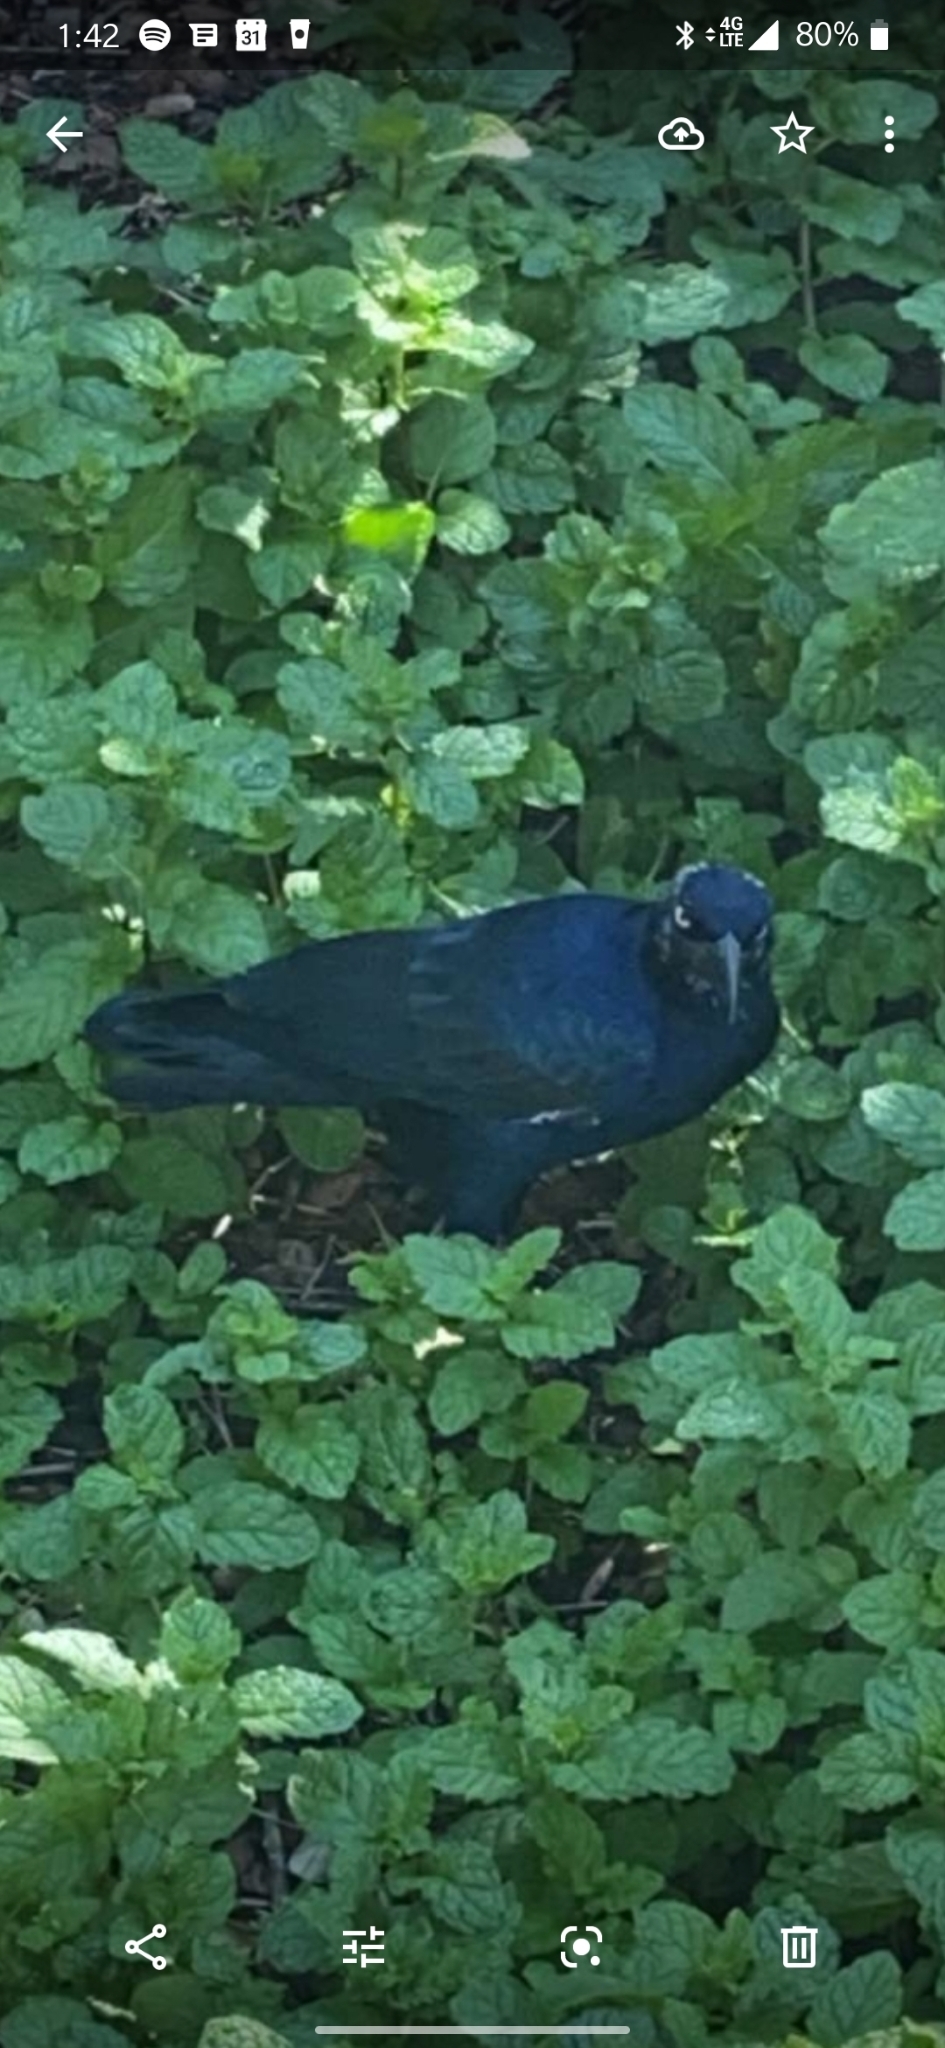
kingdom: Animalia
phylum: Chordata
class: Aves
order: Passeriformes
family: Icteridae
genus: Quiscalus
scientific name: Quiscalus mexicanus
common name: Great-tailed grackle
